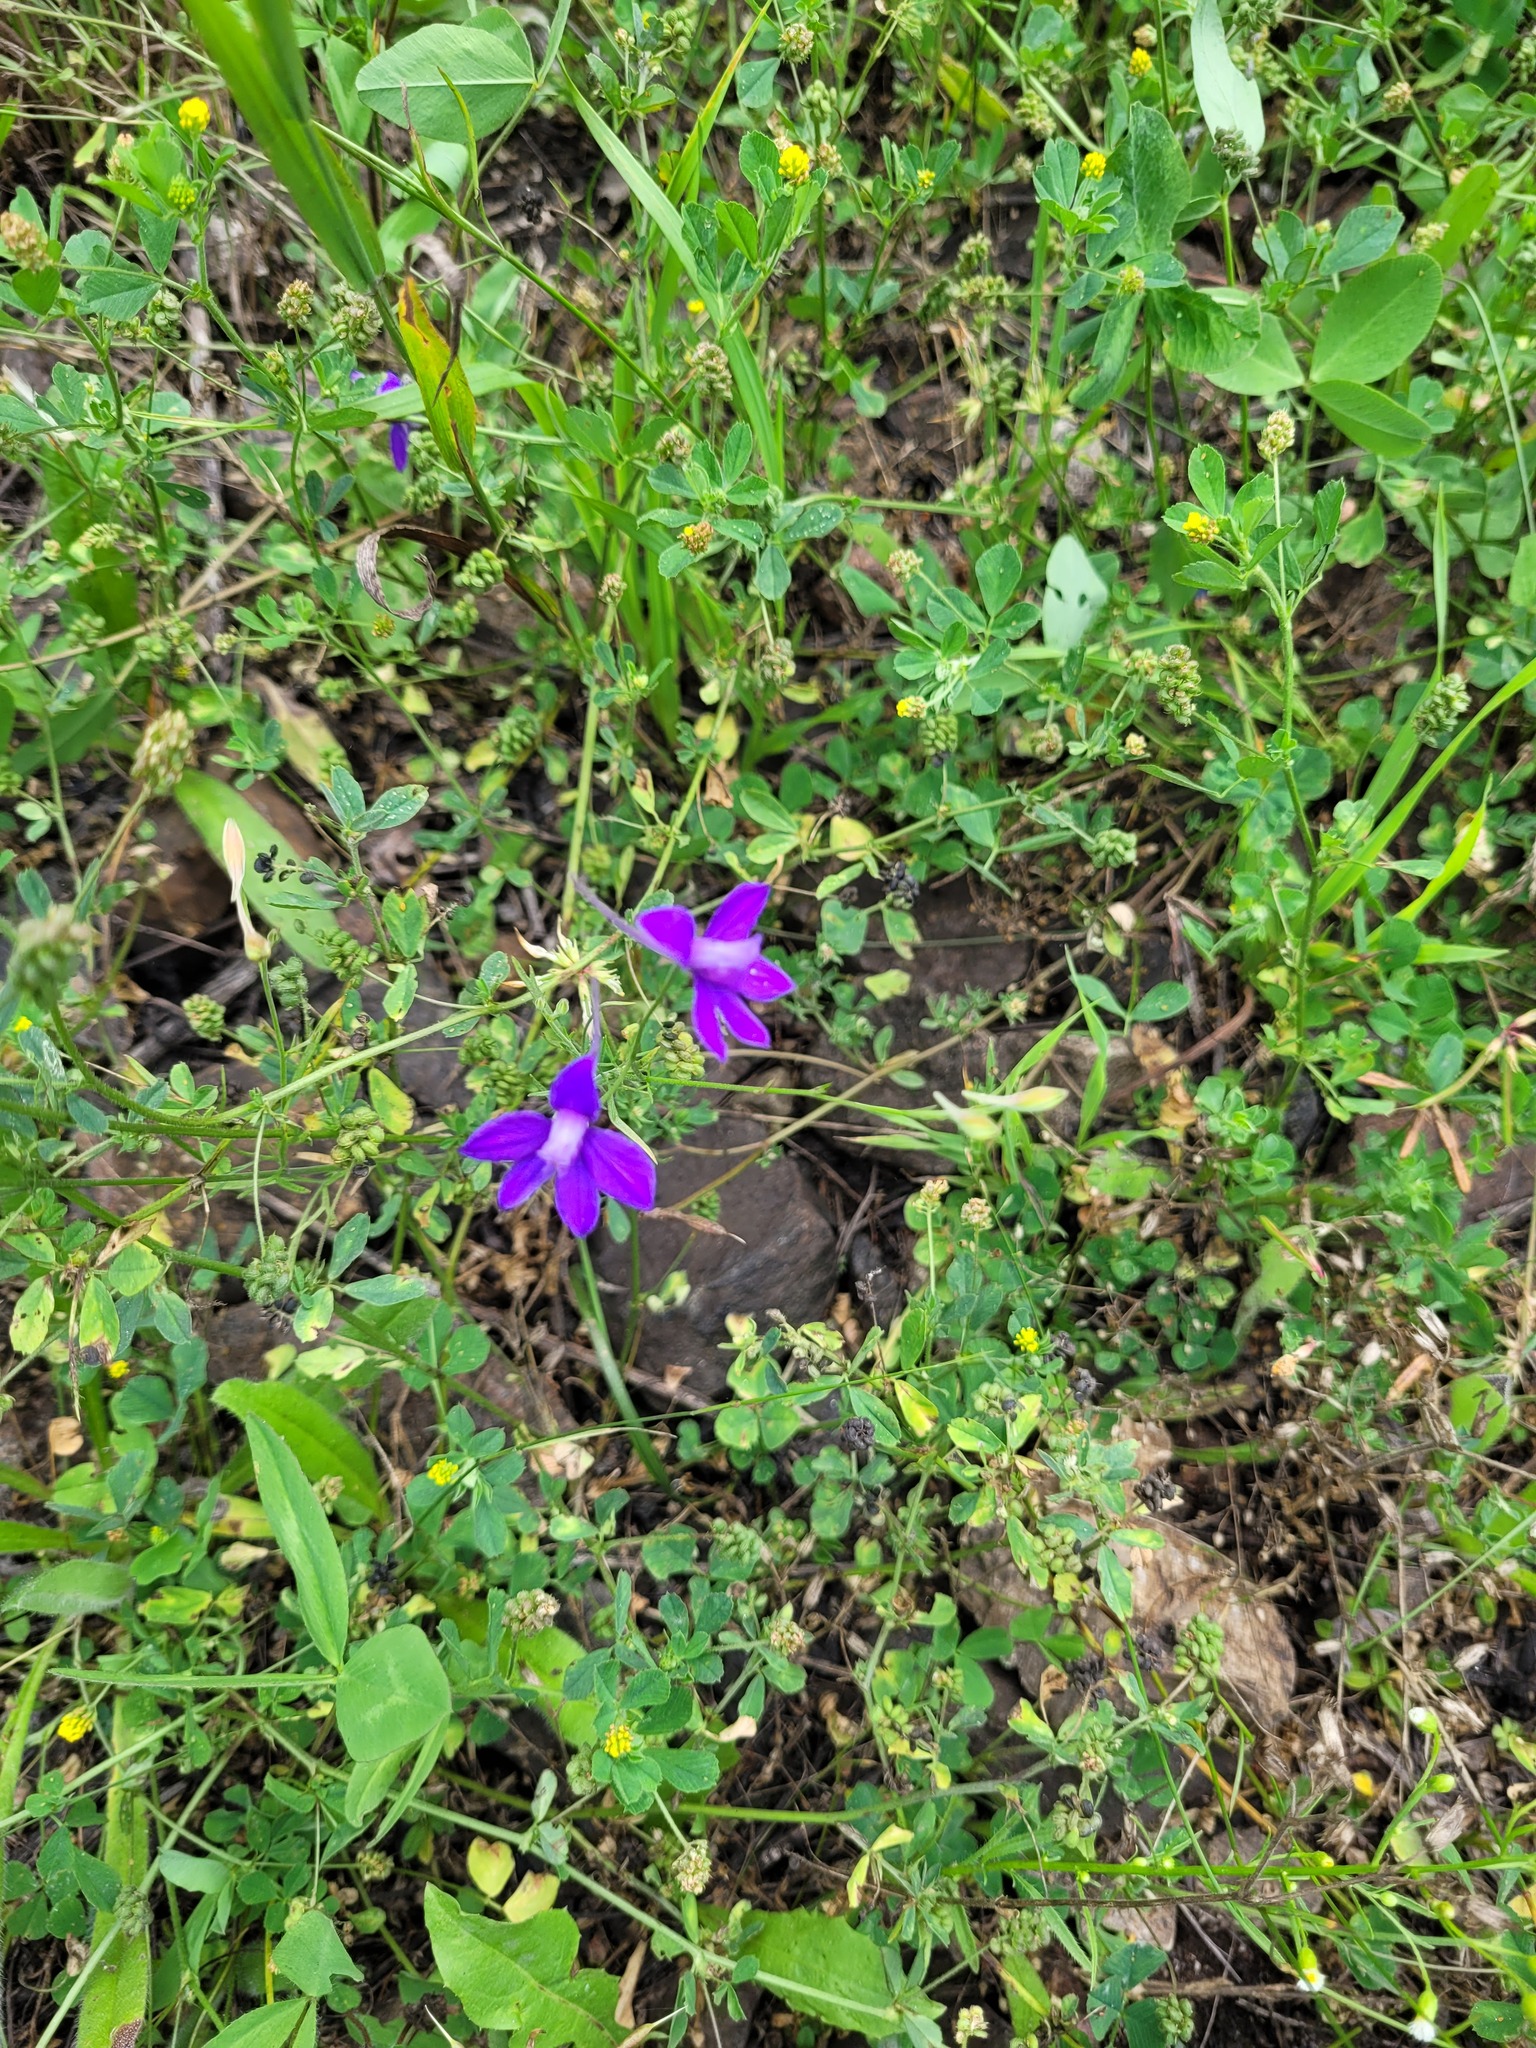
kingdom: Plantae
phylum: Tracheophyta
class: Magnoliopsida
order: Ranunculales
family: Ranunculaceae
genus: Delphinium
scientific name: Delphinium consolida
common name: Branching larkspur
